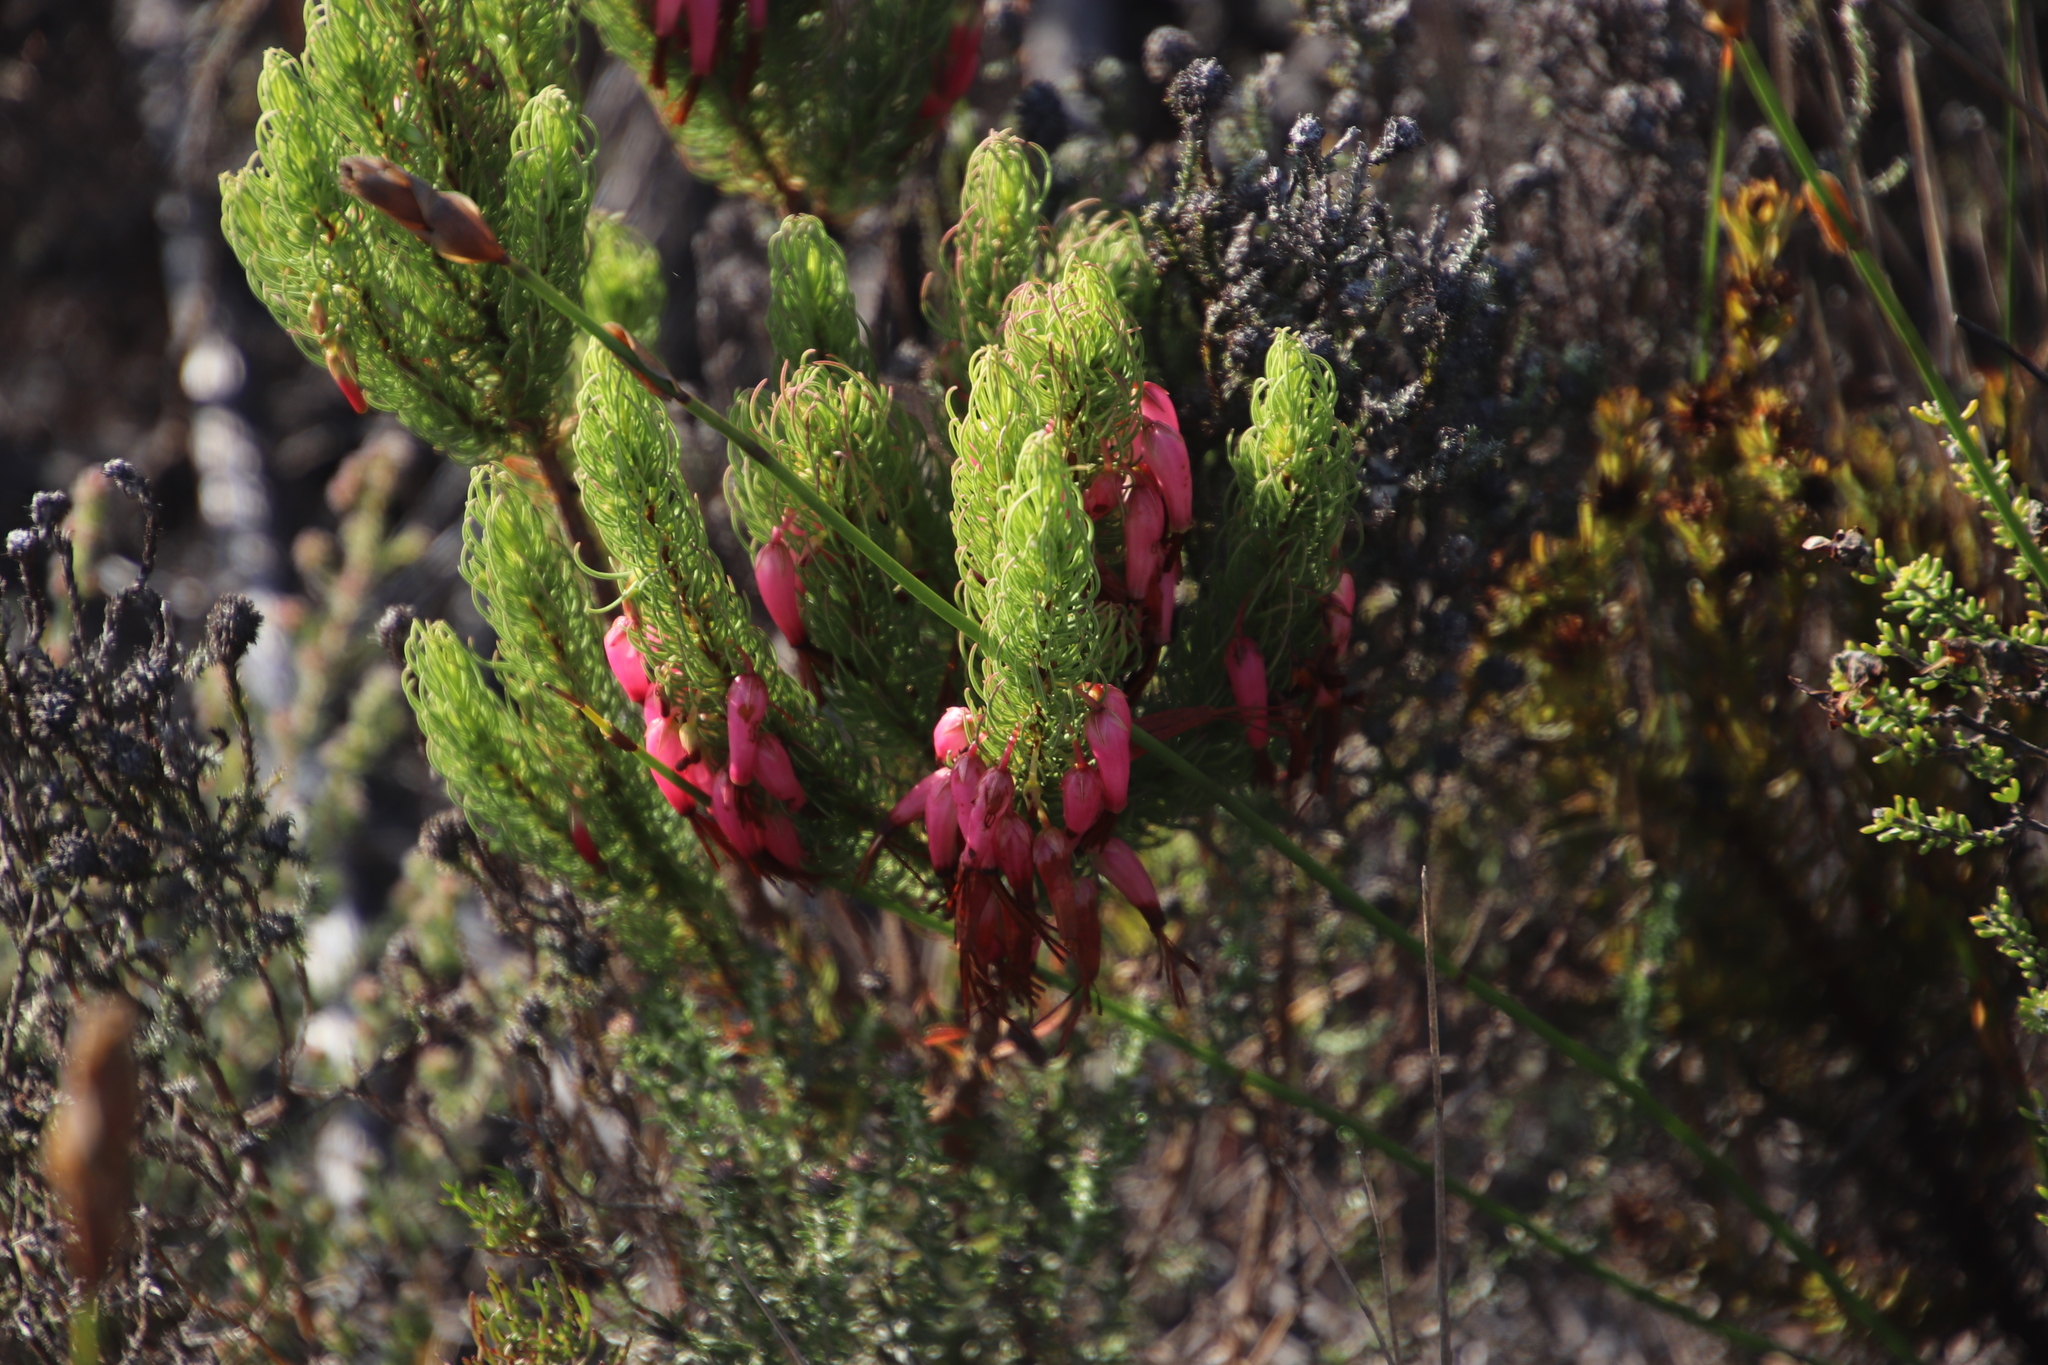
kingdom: Plantae
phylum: Tracheophyta
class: Magnoliopsida
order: Ericales
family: Ericaceae
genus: Erica
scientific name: Erica plukenetii
